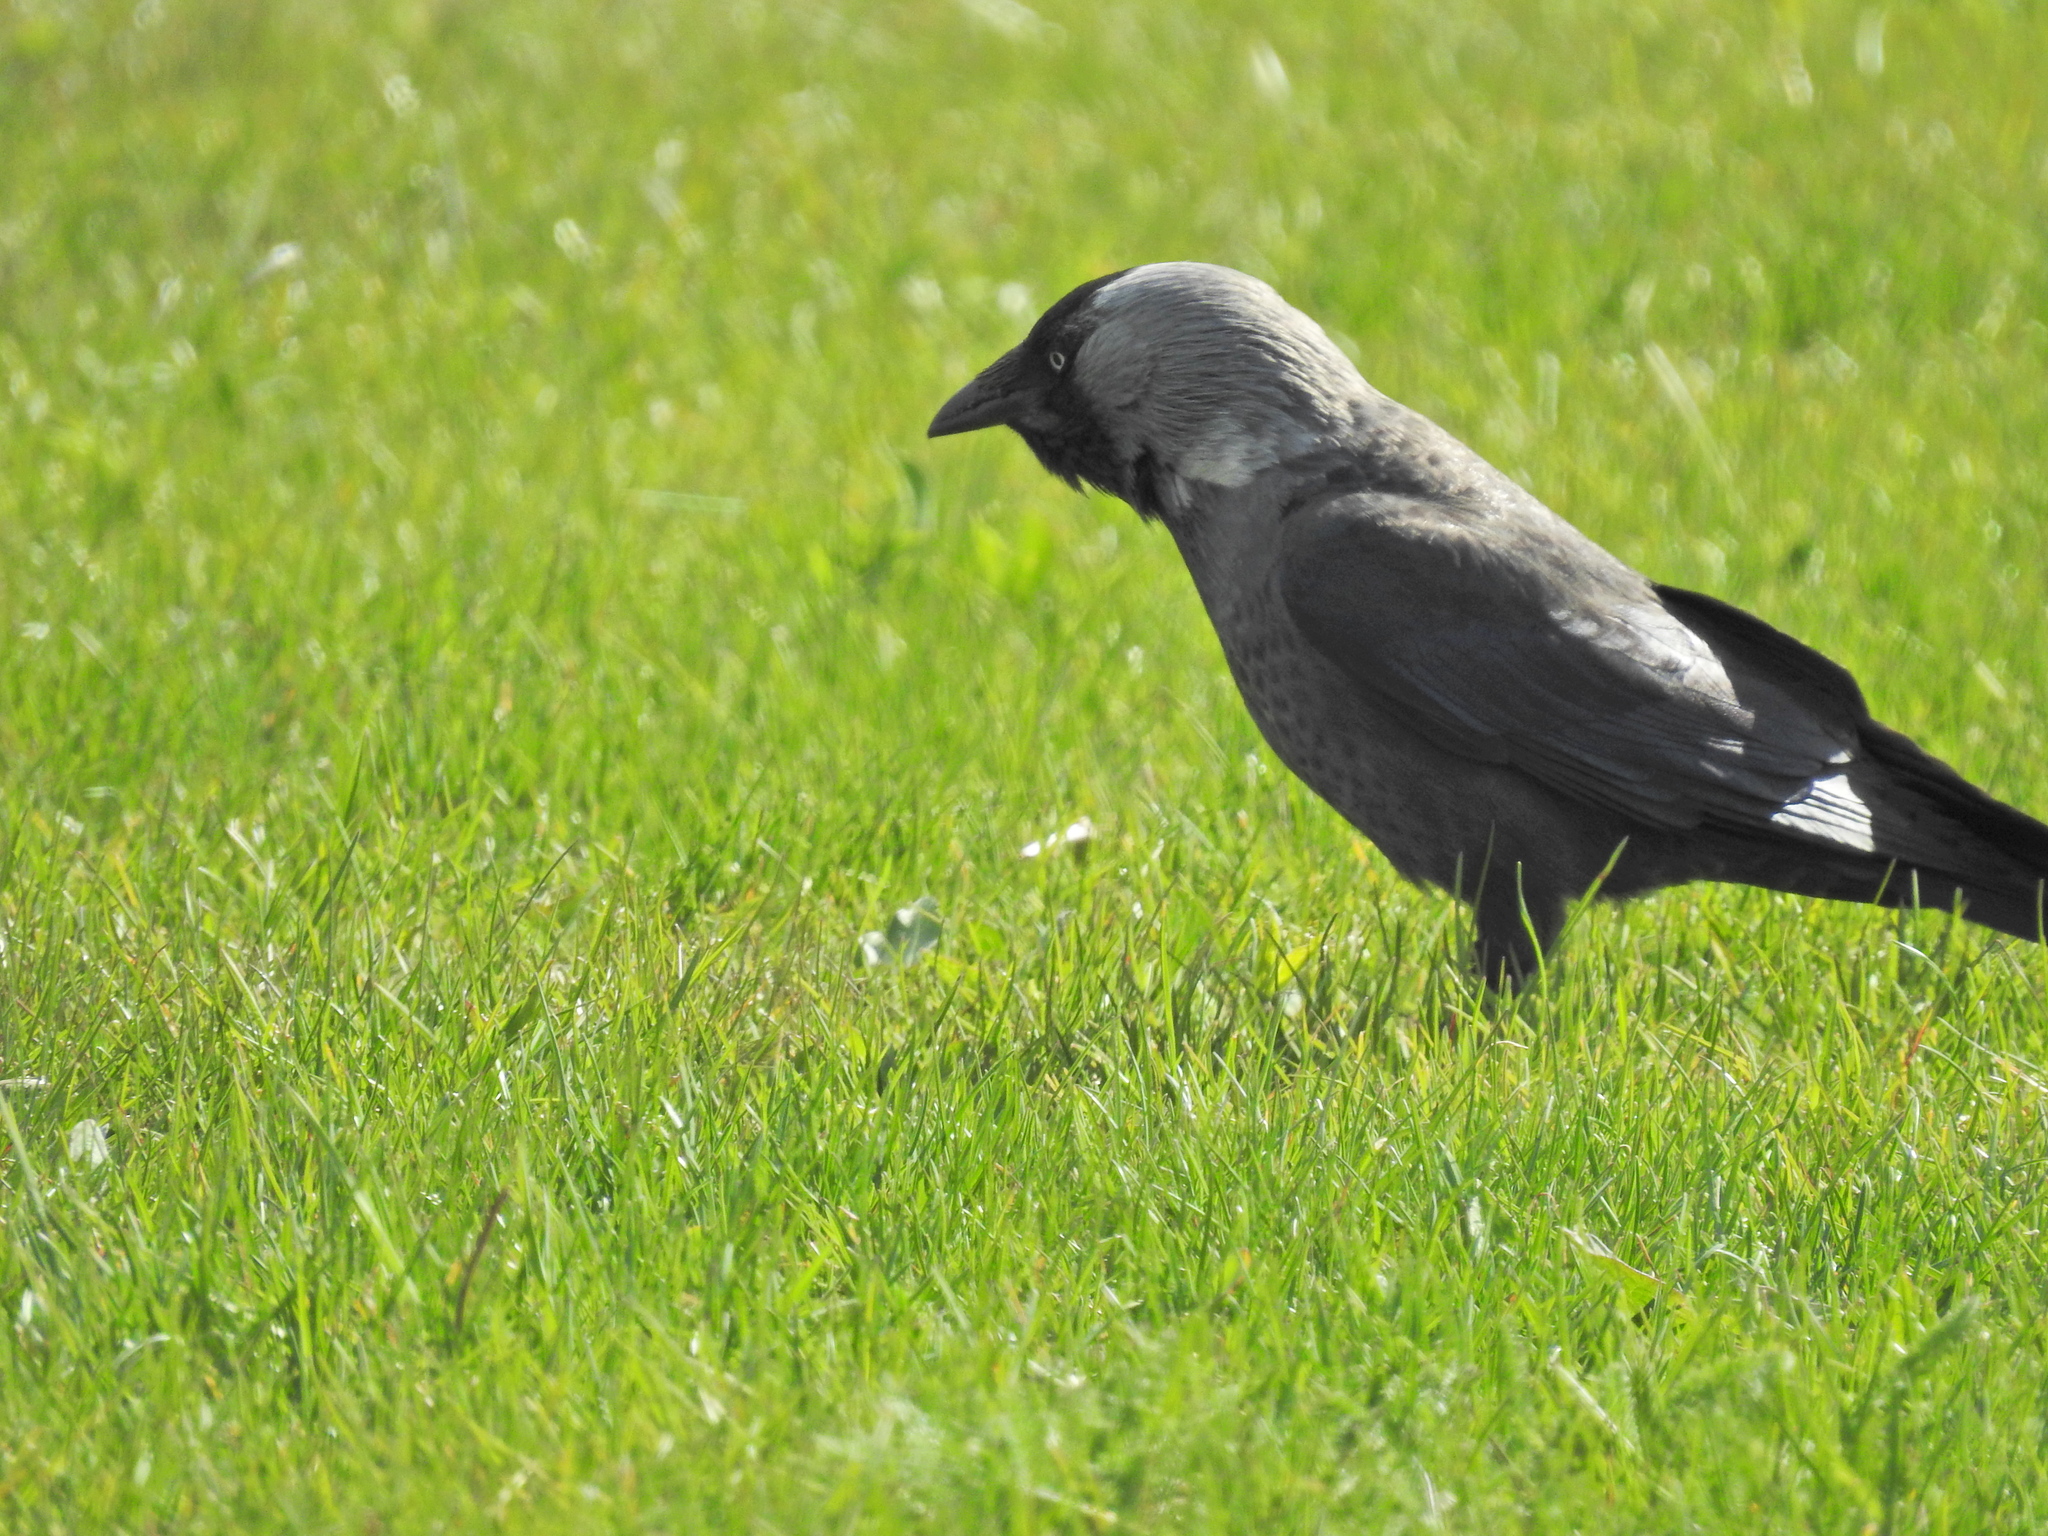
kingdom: Animalia
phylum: Chordata
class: Aves
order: Passeriformes
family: Corvidae
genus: Coloeus
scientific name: Coloeus monedula
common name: Western jackdaw
